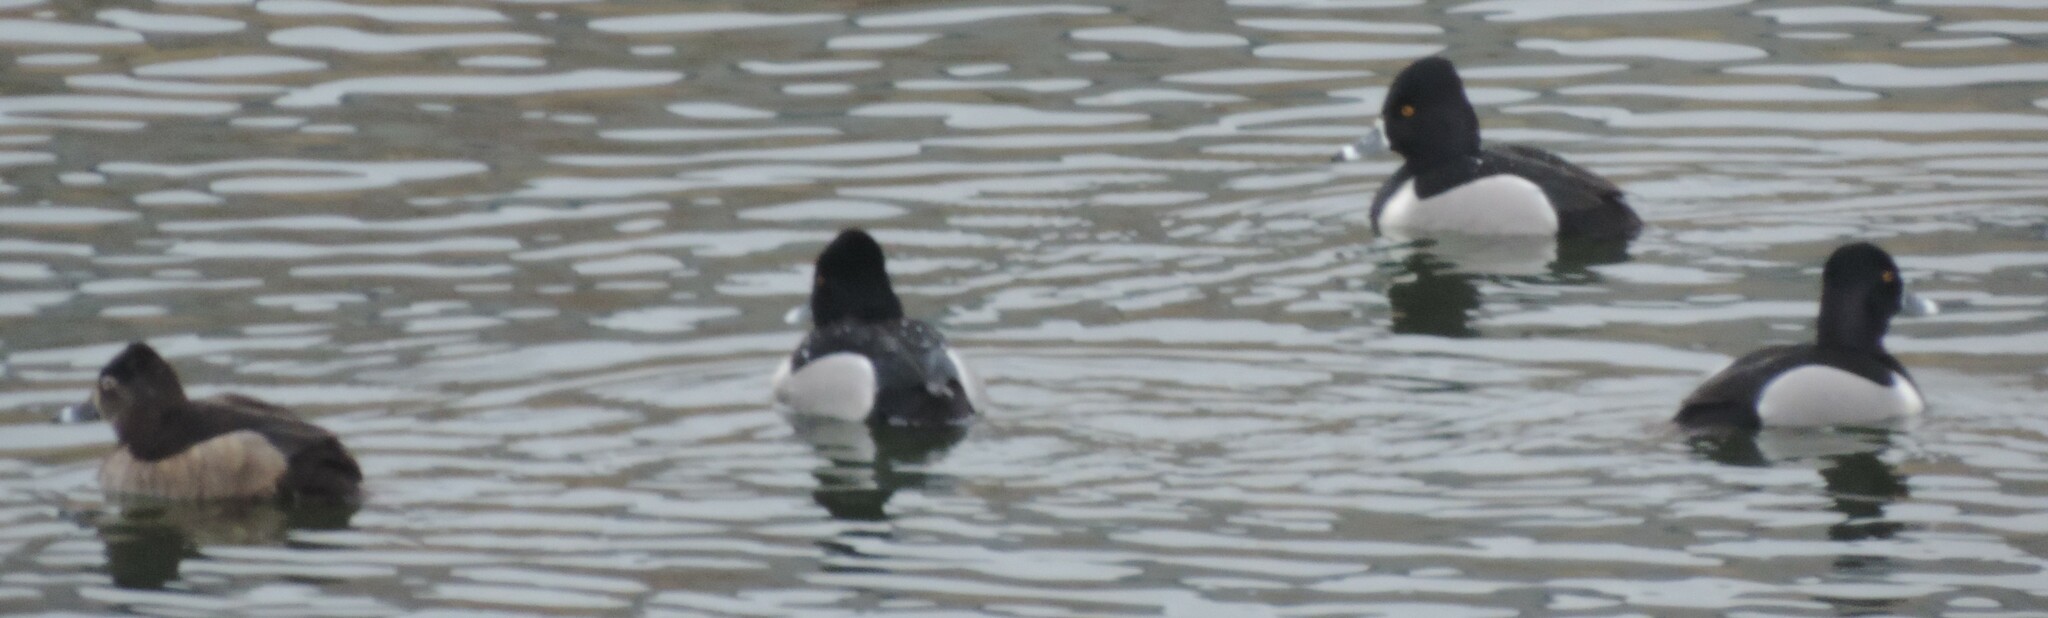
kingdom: Animalia
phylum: Chordata
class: Aves
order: Anseriformes
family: Anatidae
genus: Aythya
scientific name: Aythya collaris
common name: Ring-necked duck
